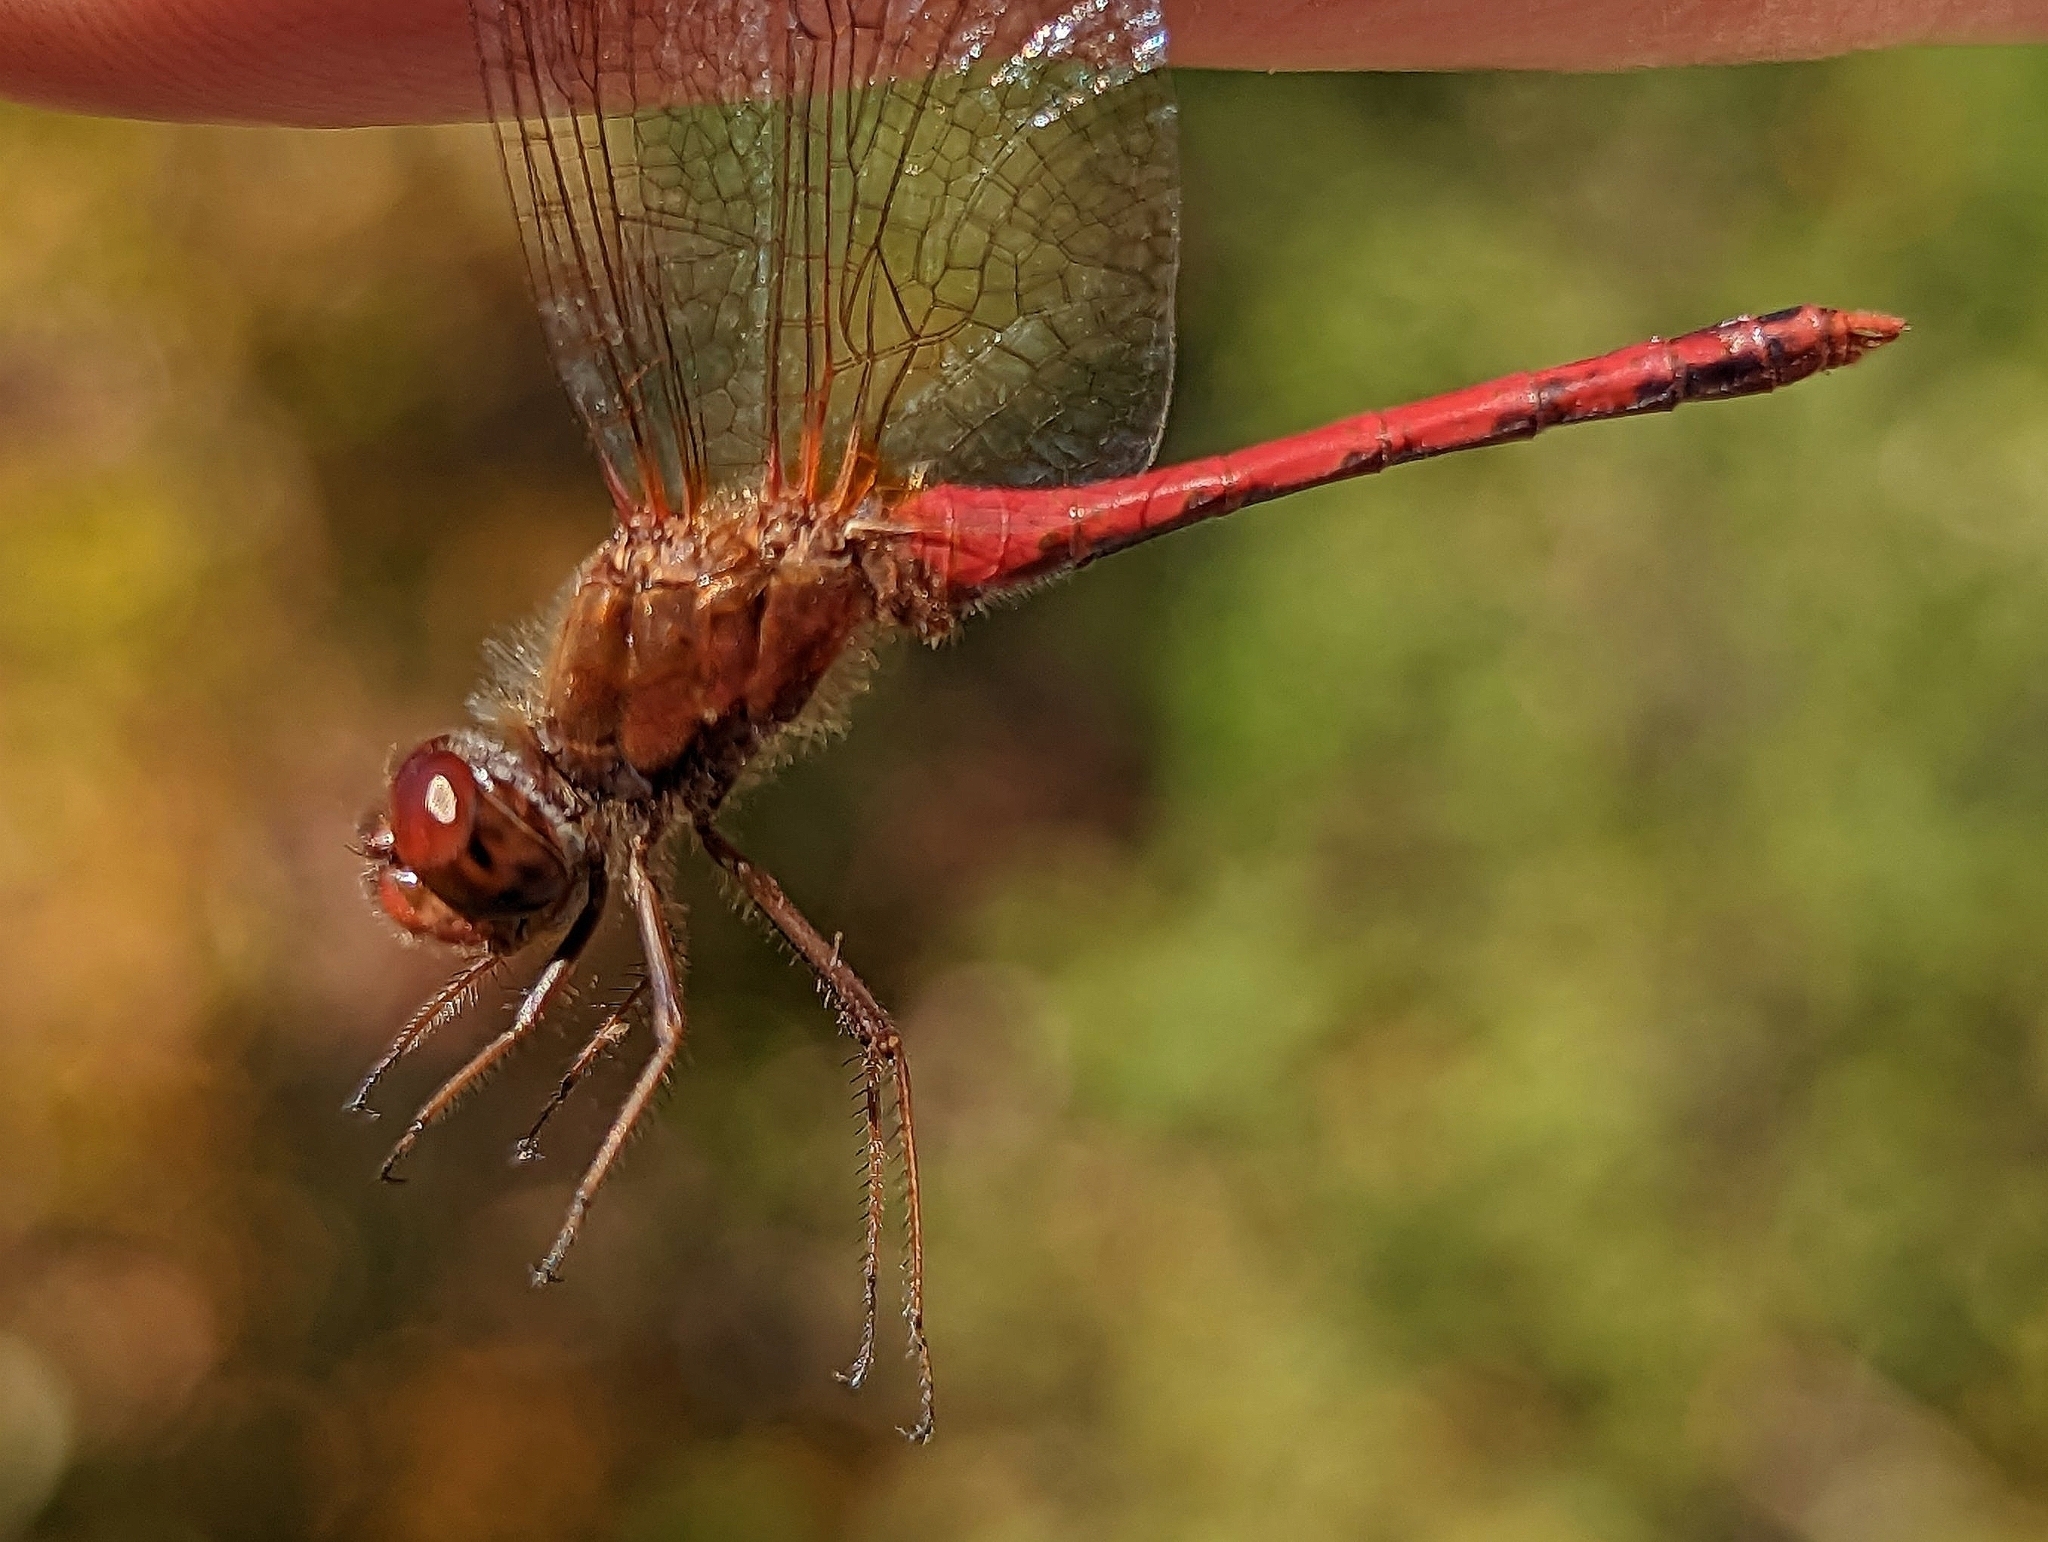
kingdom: Animalia
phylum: Arthropoda
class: Insecta
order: Odonata
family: Libellulidae
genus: Sympetrum
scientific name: Sympetrum vicinum
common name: Autumn meadowhawk
